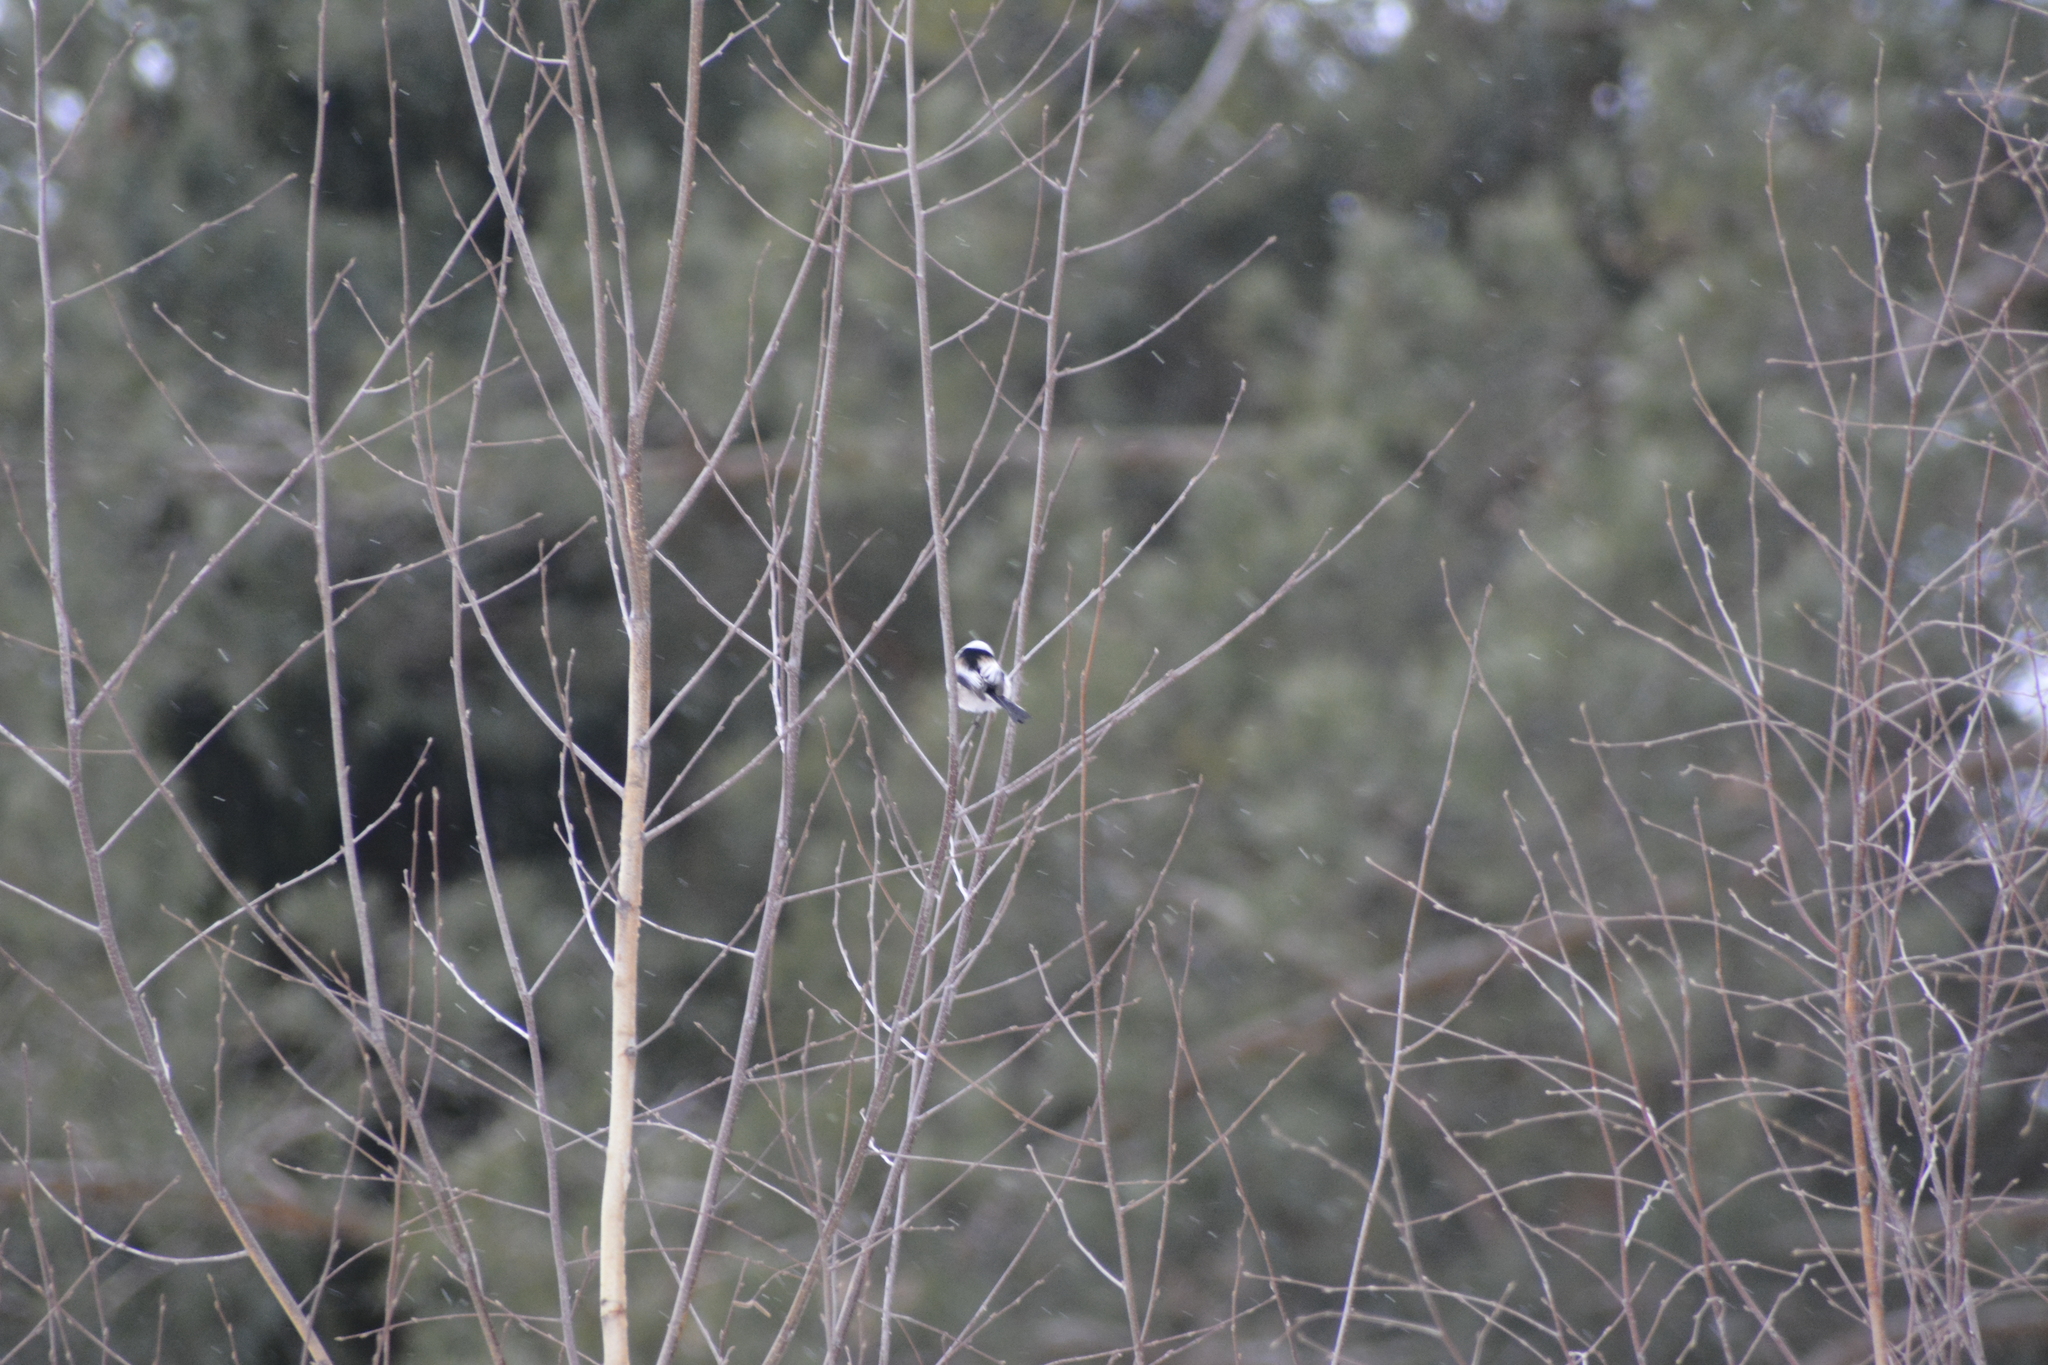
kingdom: Animalia
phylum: Chordata
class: Aves
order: Passeriformes
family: Aegithalidae
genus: Aegithalos
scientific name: Aegithalos caudatus
